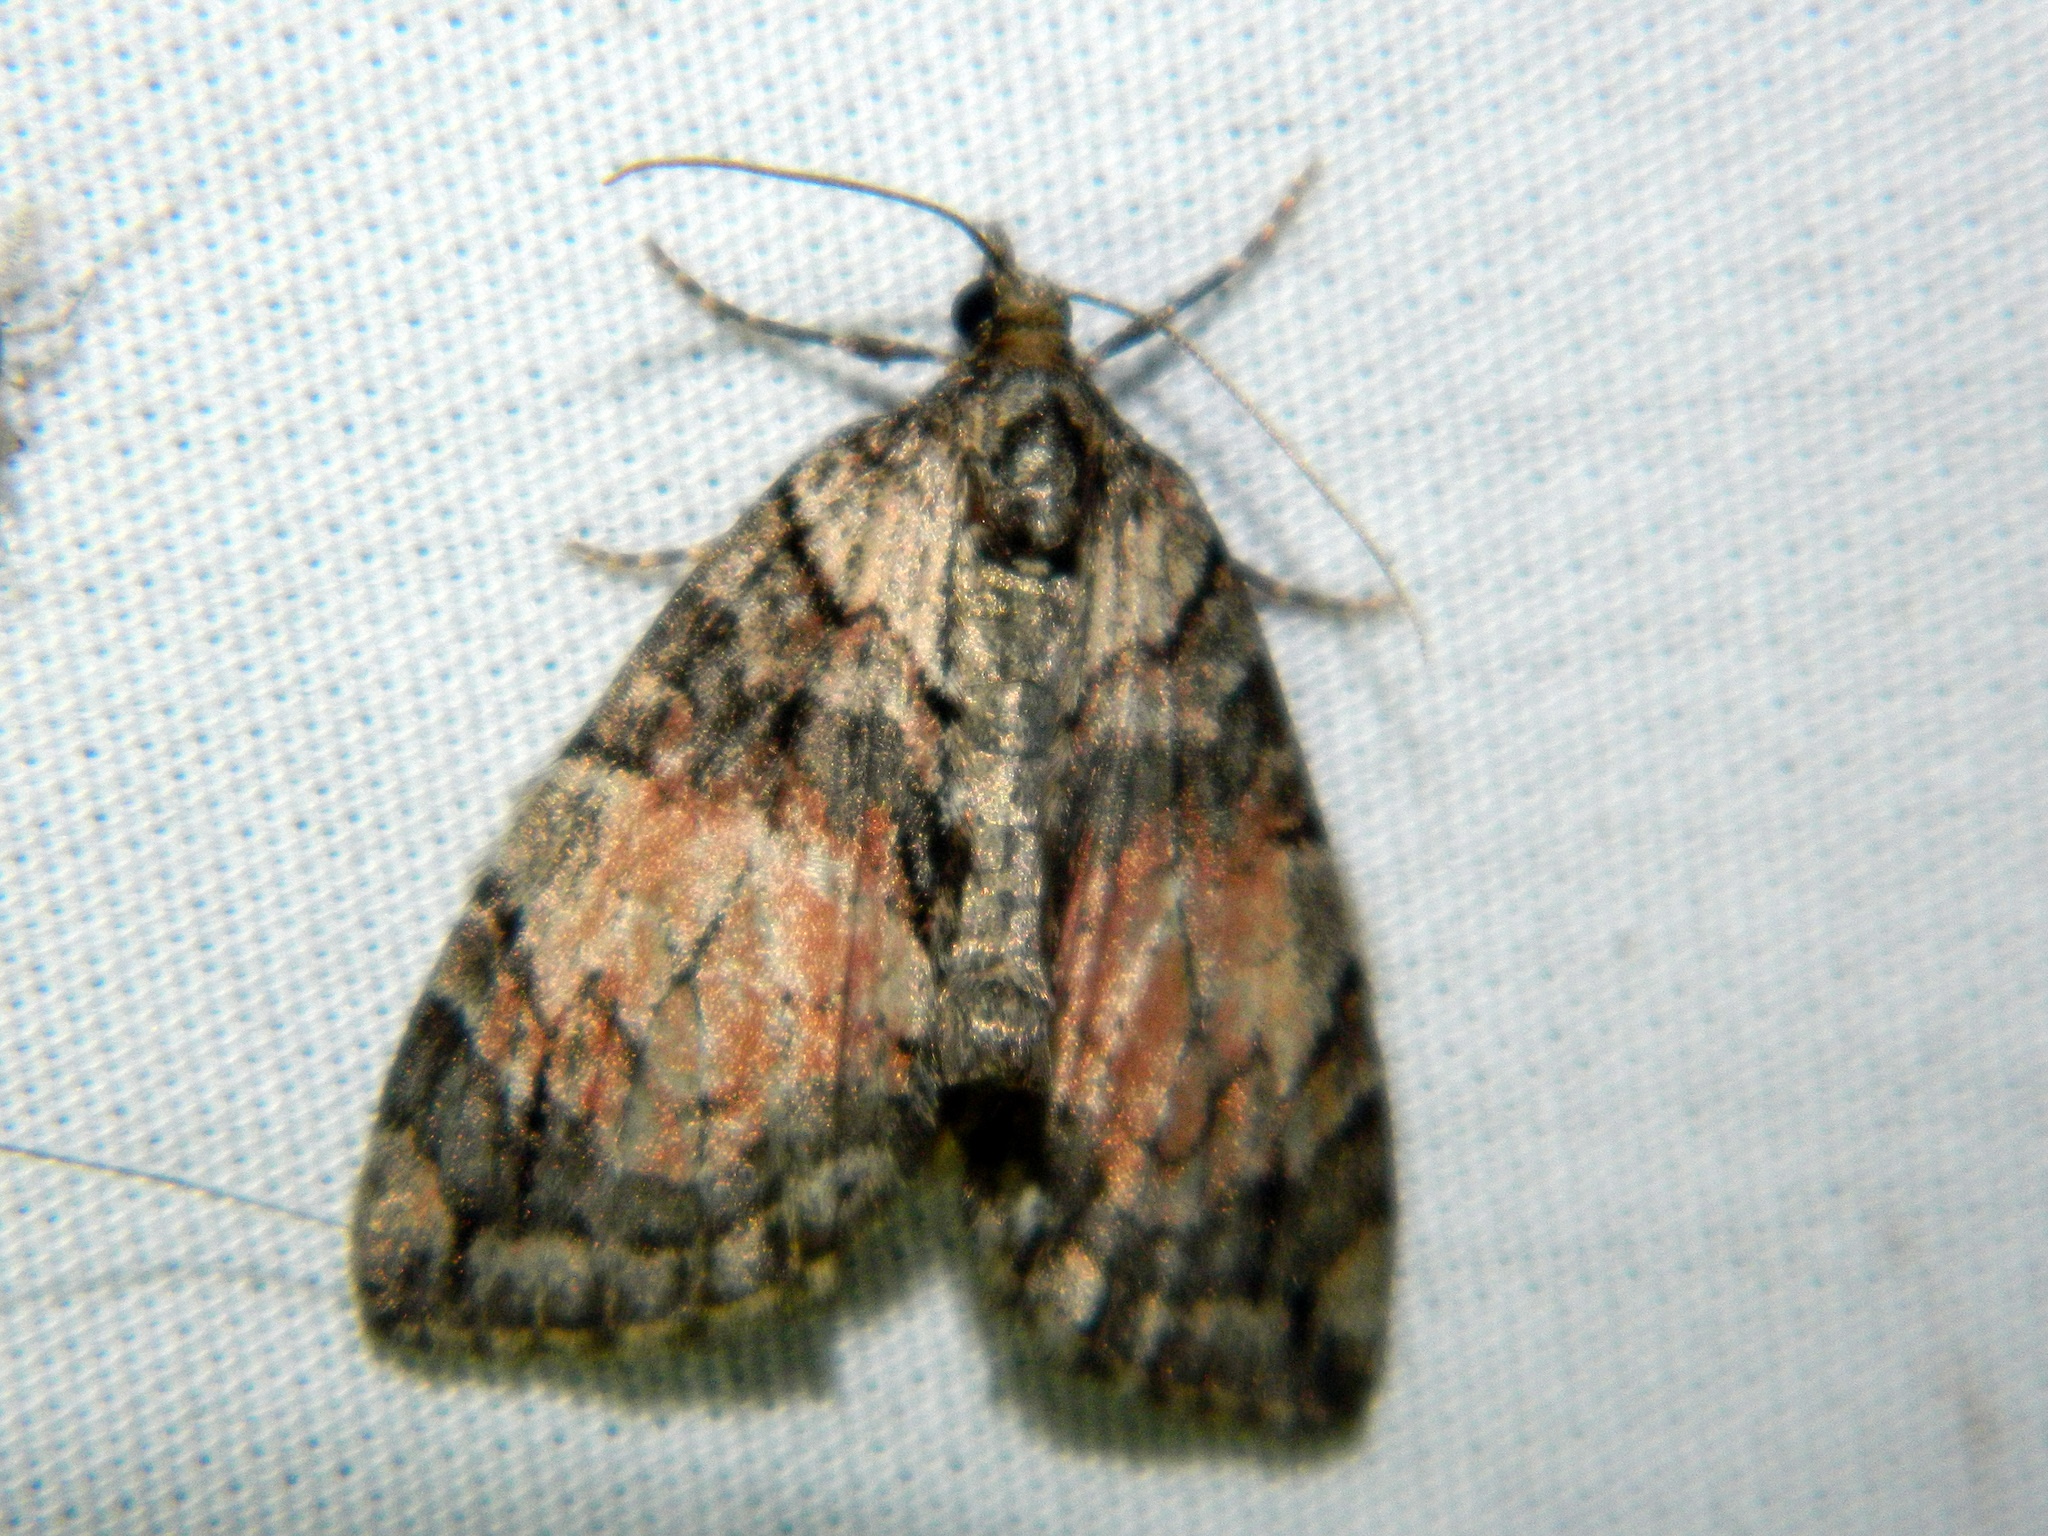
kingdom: Animalia
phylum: Arthropoda
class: Insecta
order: Lepidoptera
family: Geometridae
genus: Hydriomena
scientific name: Hydriomena perfracta
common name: Shattered hydriomena moth
